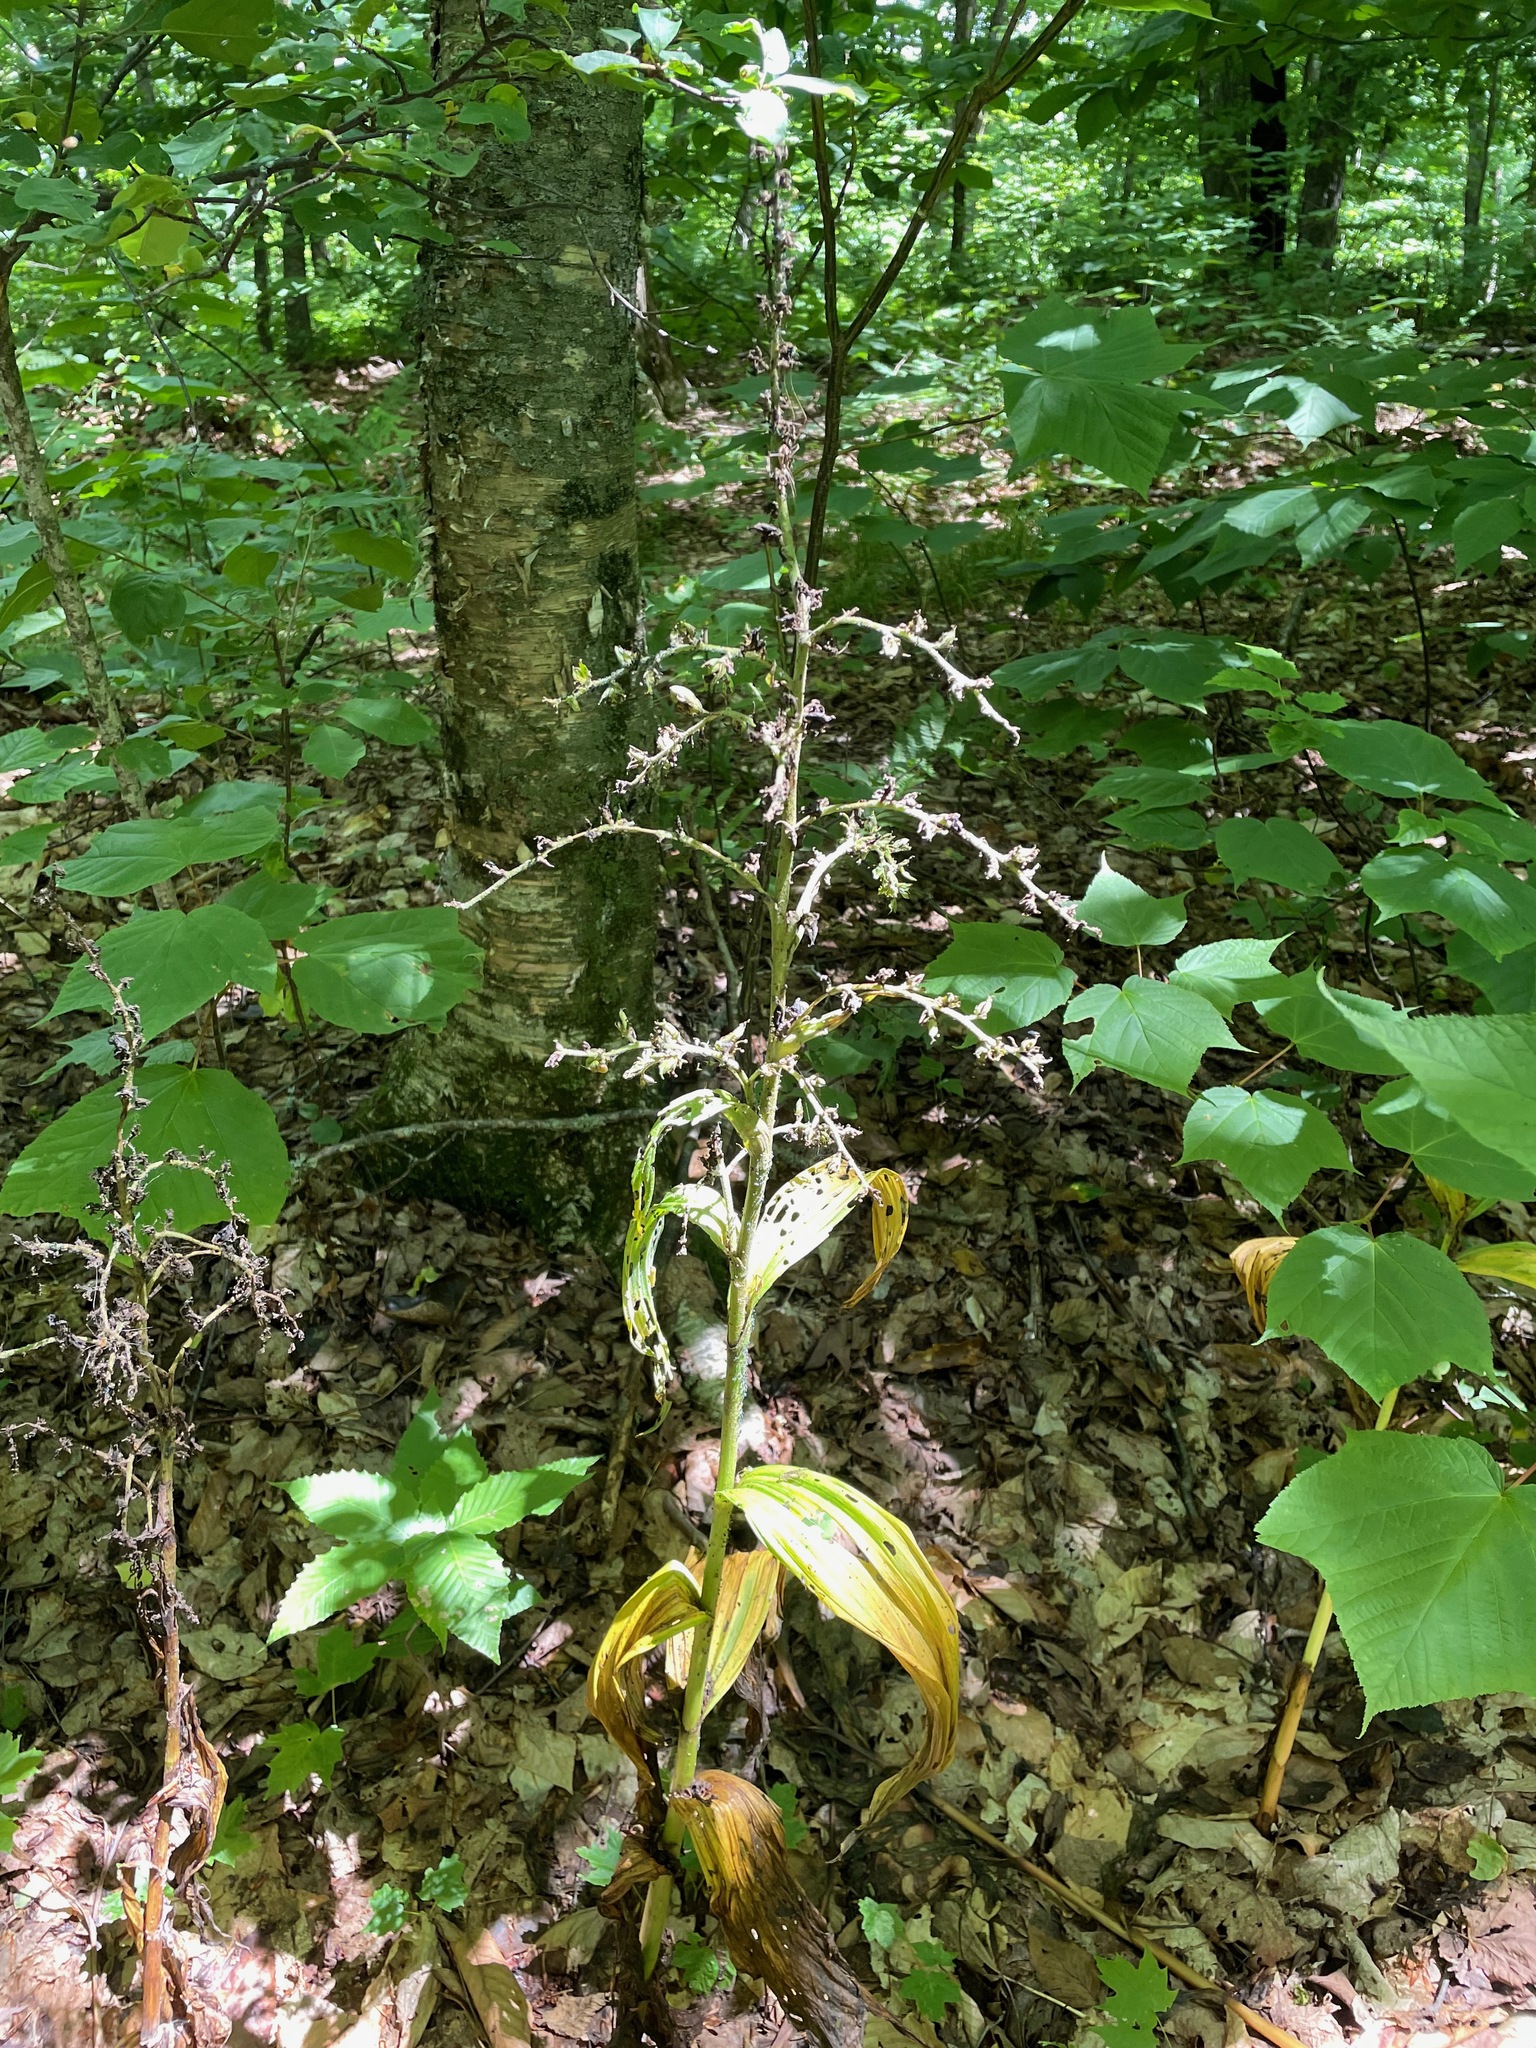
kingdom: Plantae
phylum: Tracheophyta
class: Liliopsida
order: Liliales
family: Melanthiaceae
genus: Veratrum
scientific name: Veratrum viride
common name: American false hellebore
